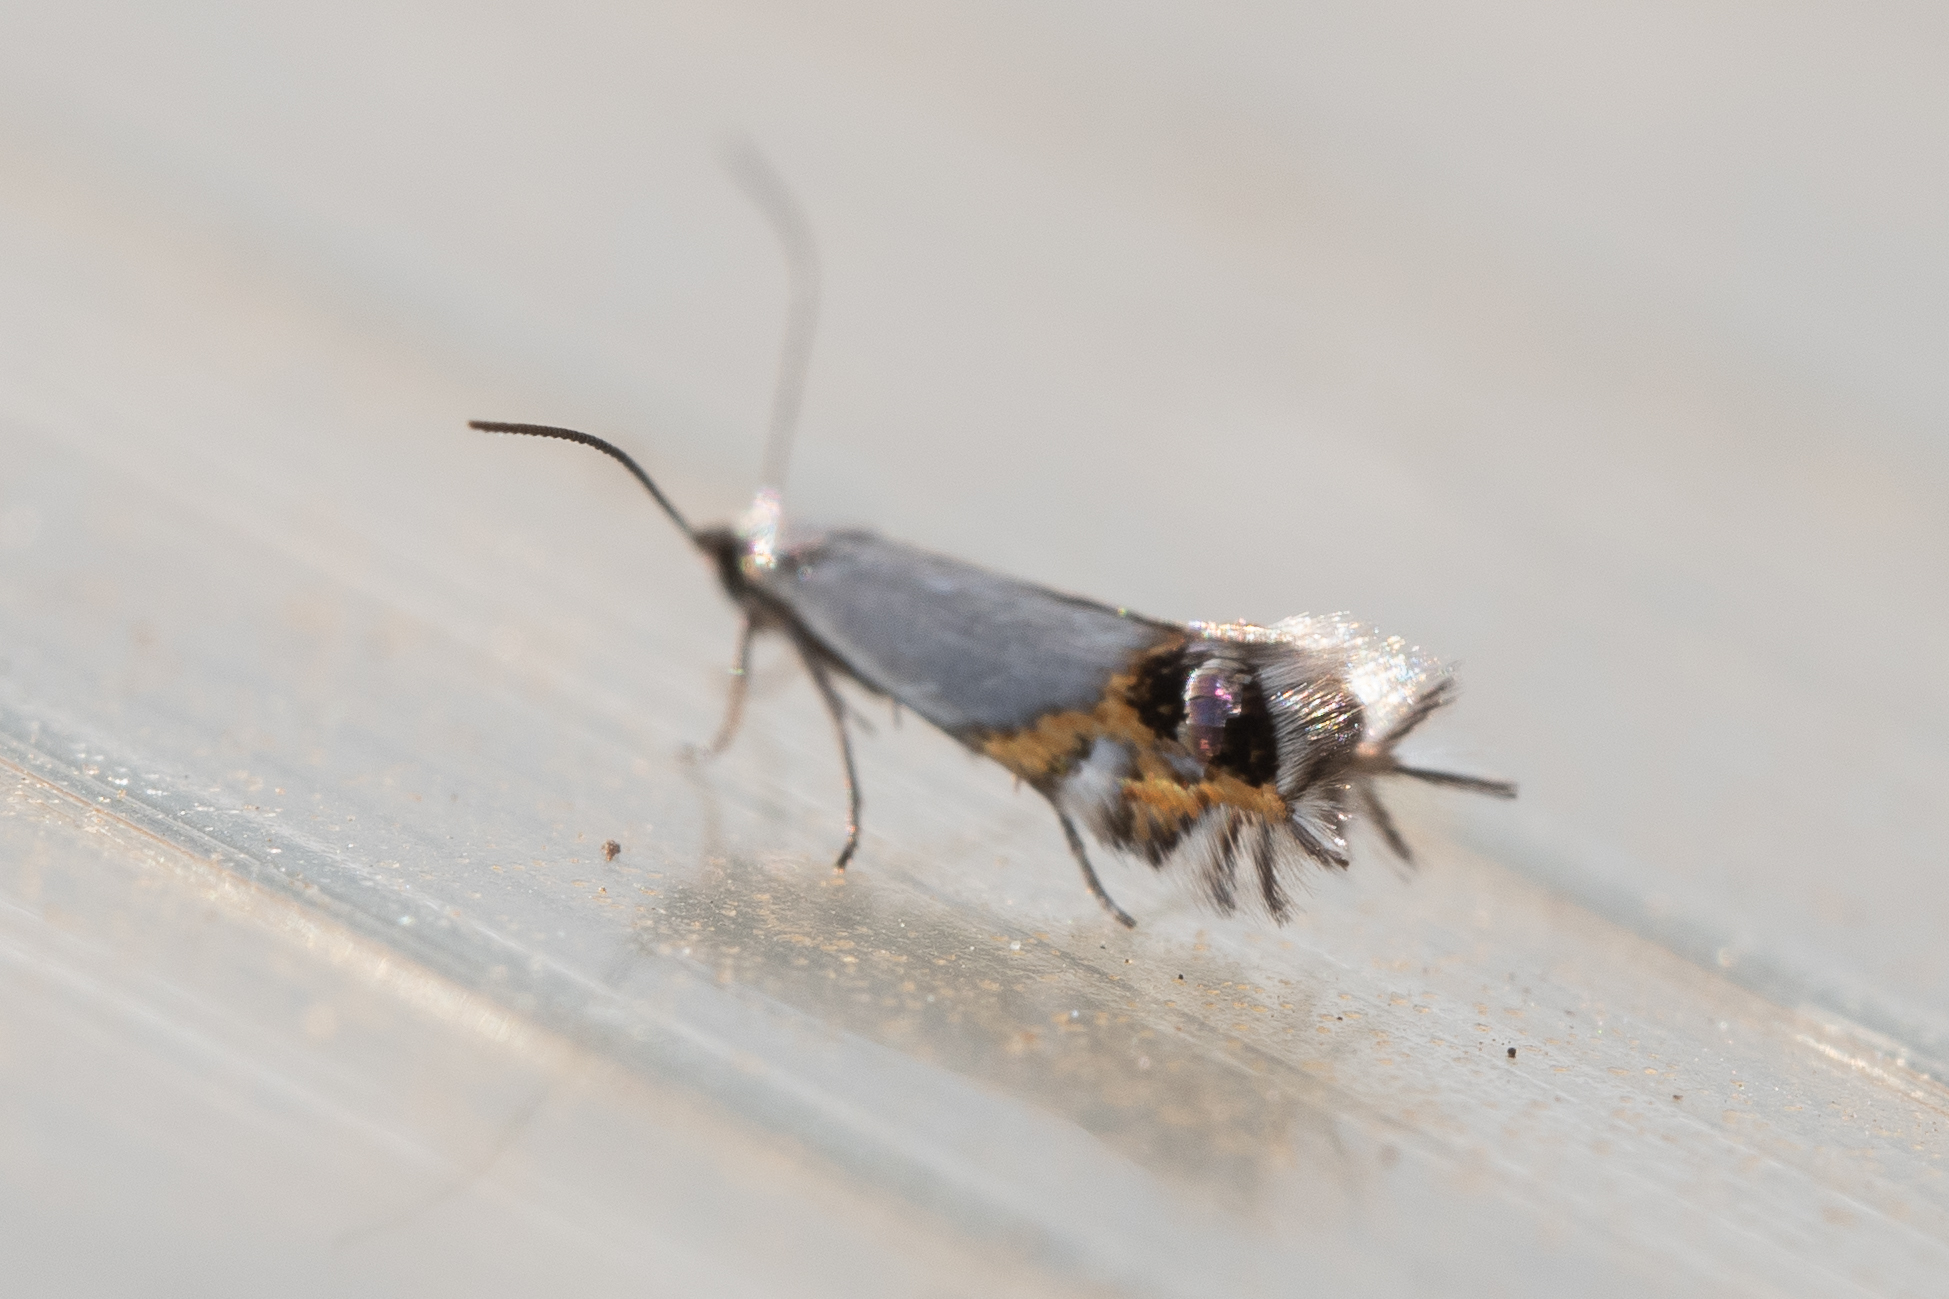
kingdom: Animalia
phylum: Arthropoda
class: Insecta
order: Lepidoptera
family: Lyonetiidae
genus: Leucoptera
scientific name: Leucoptera malifoliella
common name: Pear leaf blister moth
